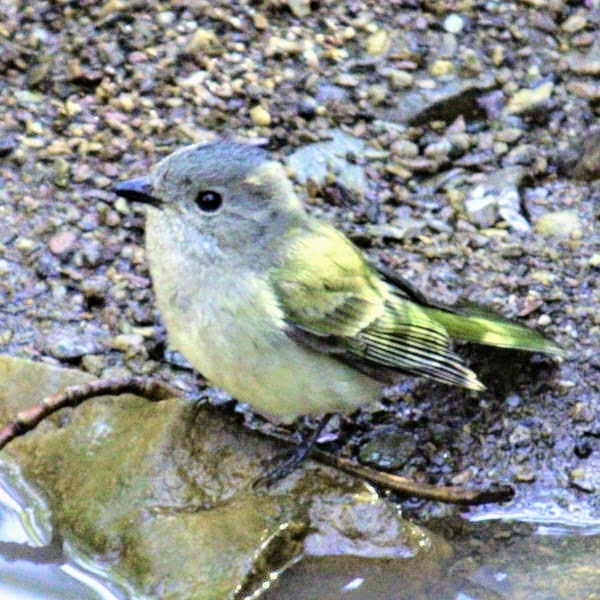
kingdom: Animalia
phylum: Chordata
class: Aves
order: Passeriformes
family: Pachycephalidae
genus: Pachycephala
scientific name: Pachycephala pectoralis
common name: Australian golden whistler
